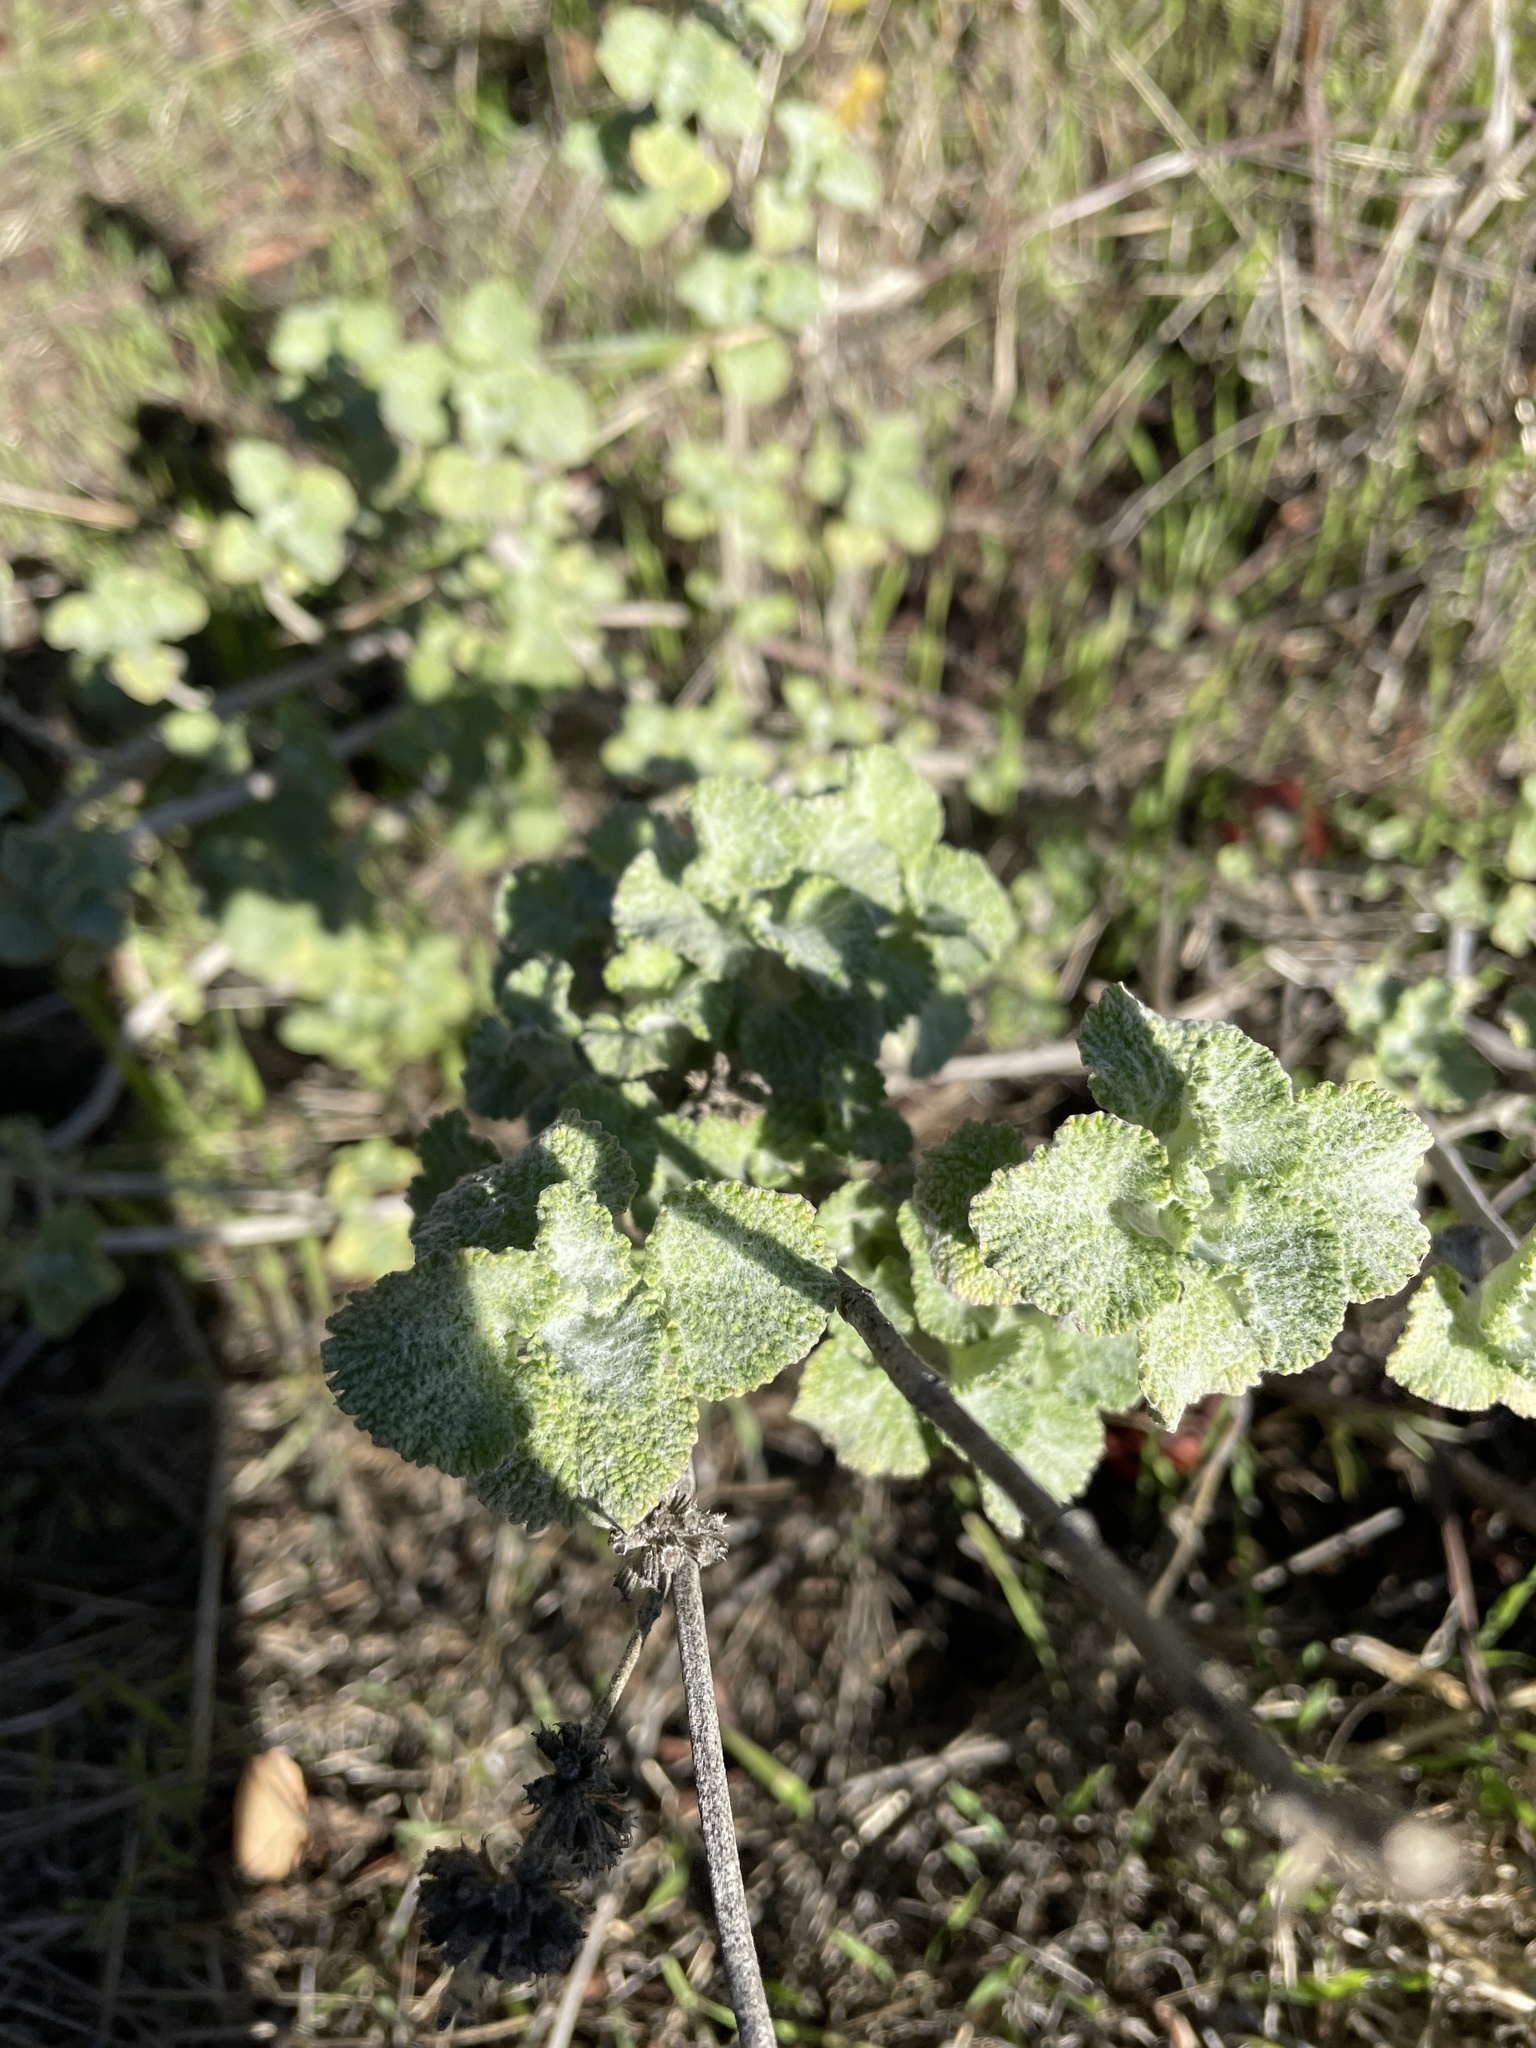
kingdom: Plantae
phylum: Tracheophyta
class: Magnoliopsida
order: Lamiales
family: Lamiaceae
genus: Marrubium
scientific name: Marrubium vulgare
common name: Horehound
